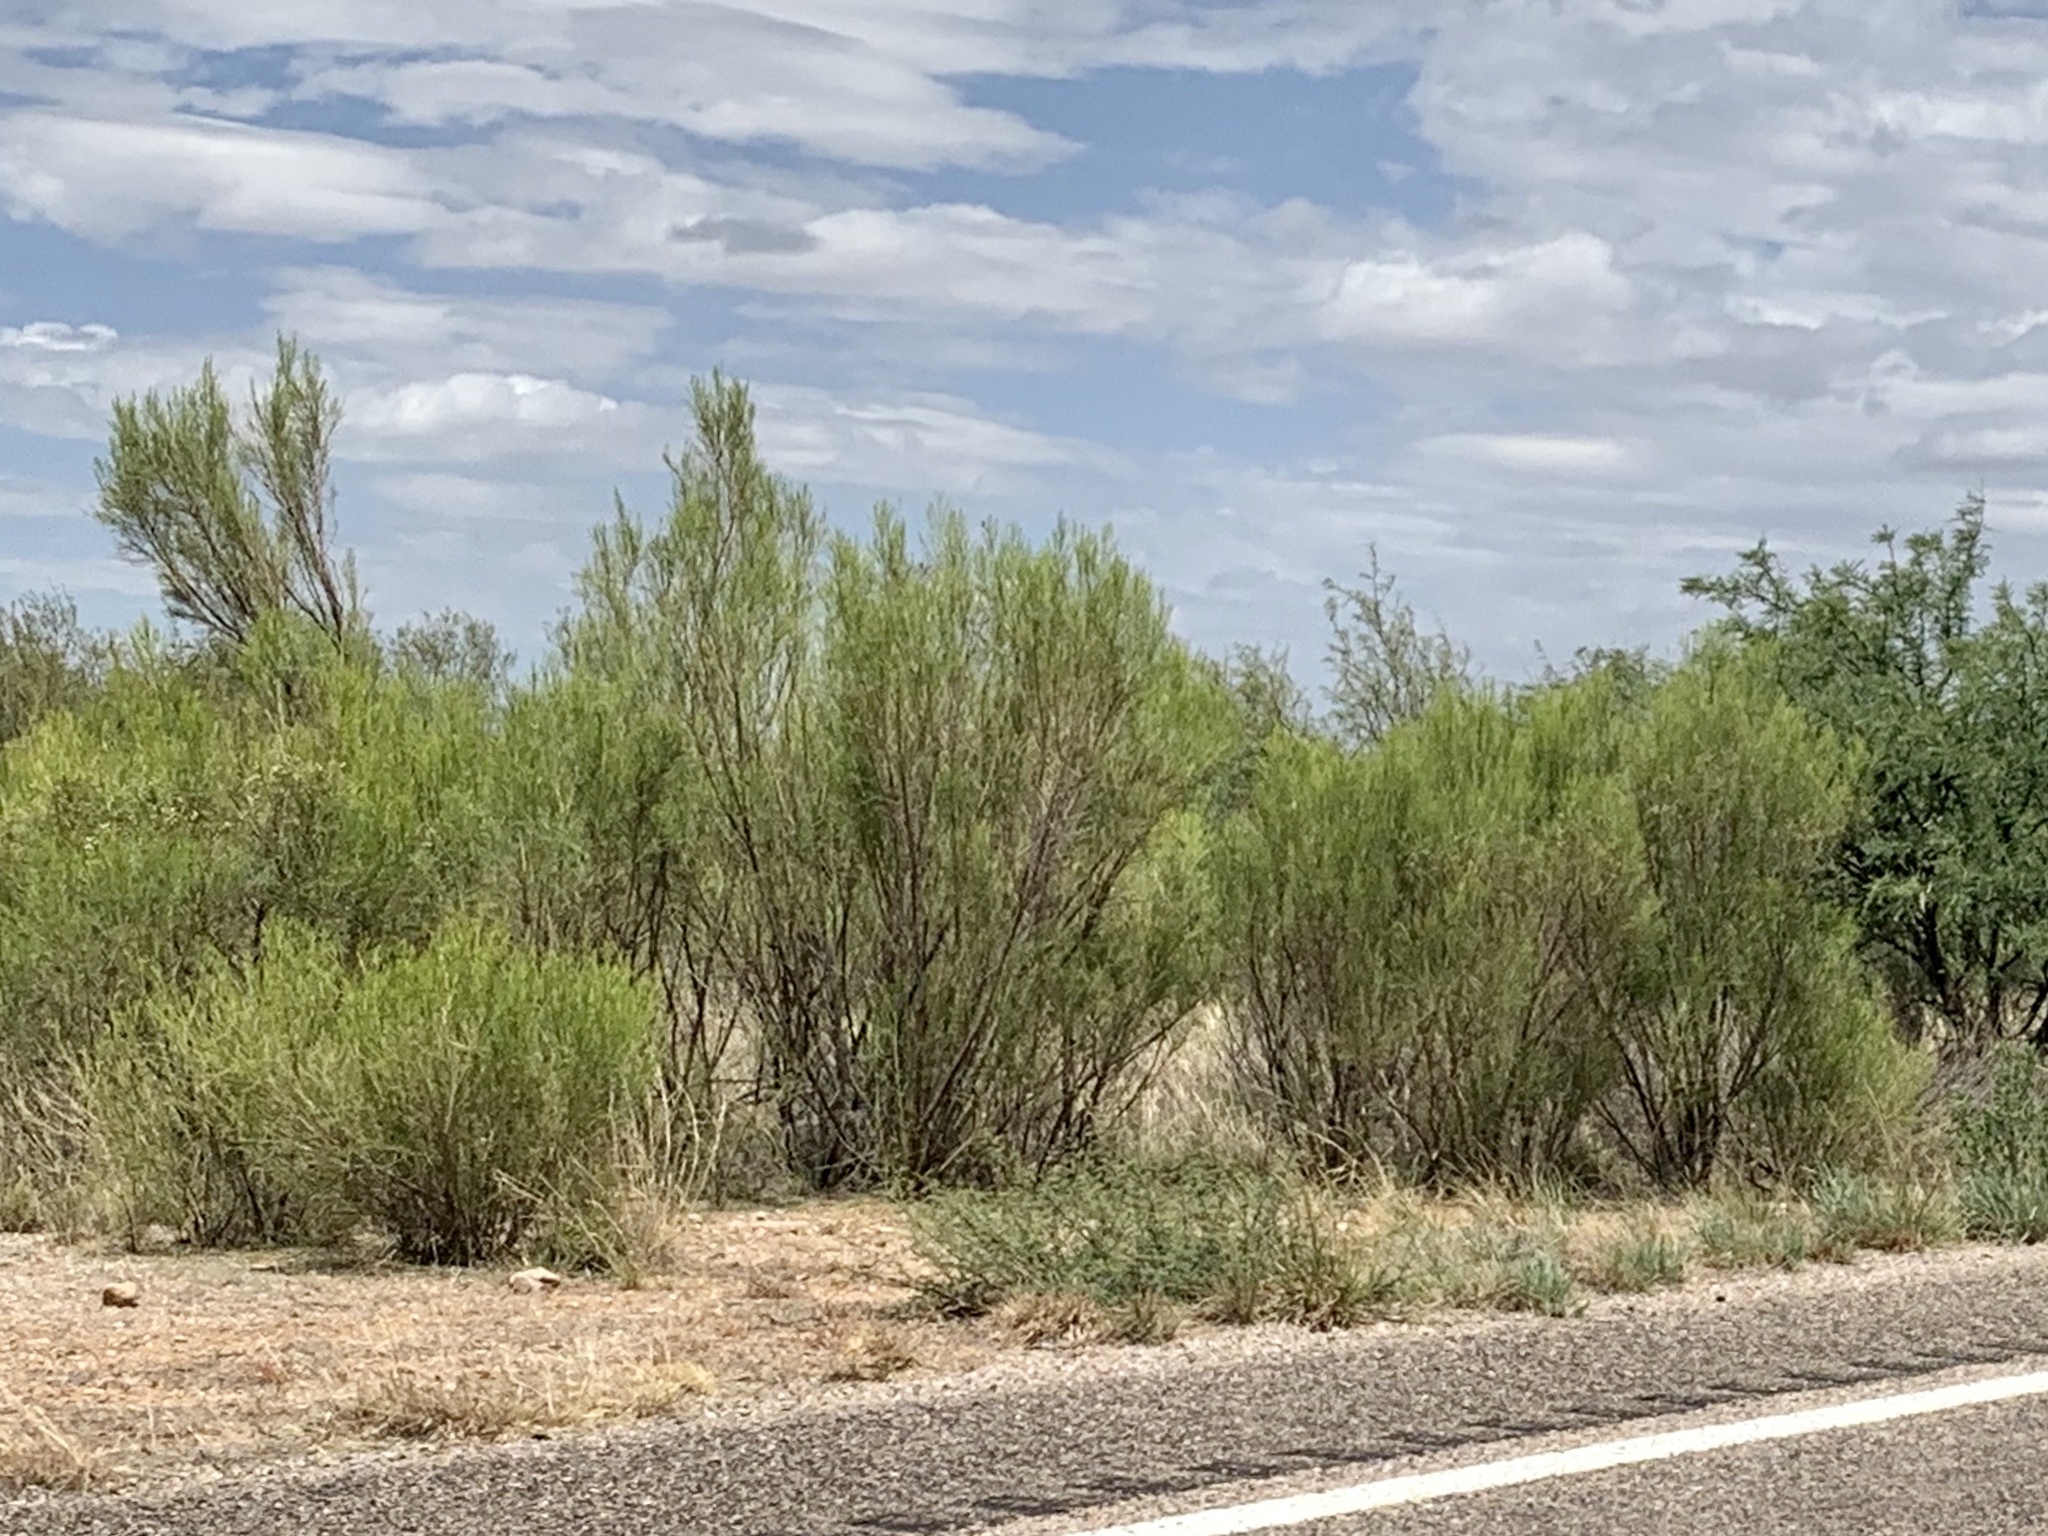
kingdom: Plantae
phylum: Tracheophyta
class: Magnoliopsida
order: Asterales
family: Asteraceae
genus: Baccharis
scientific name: Baccharis sarothroides
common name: Desert-broom
